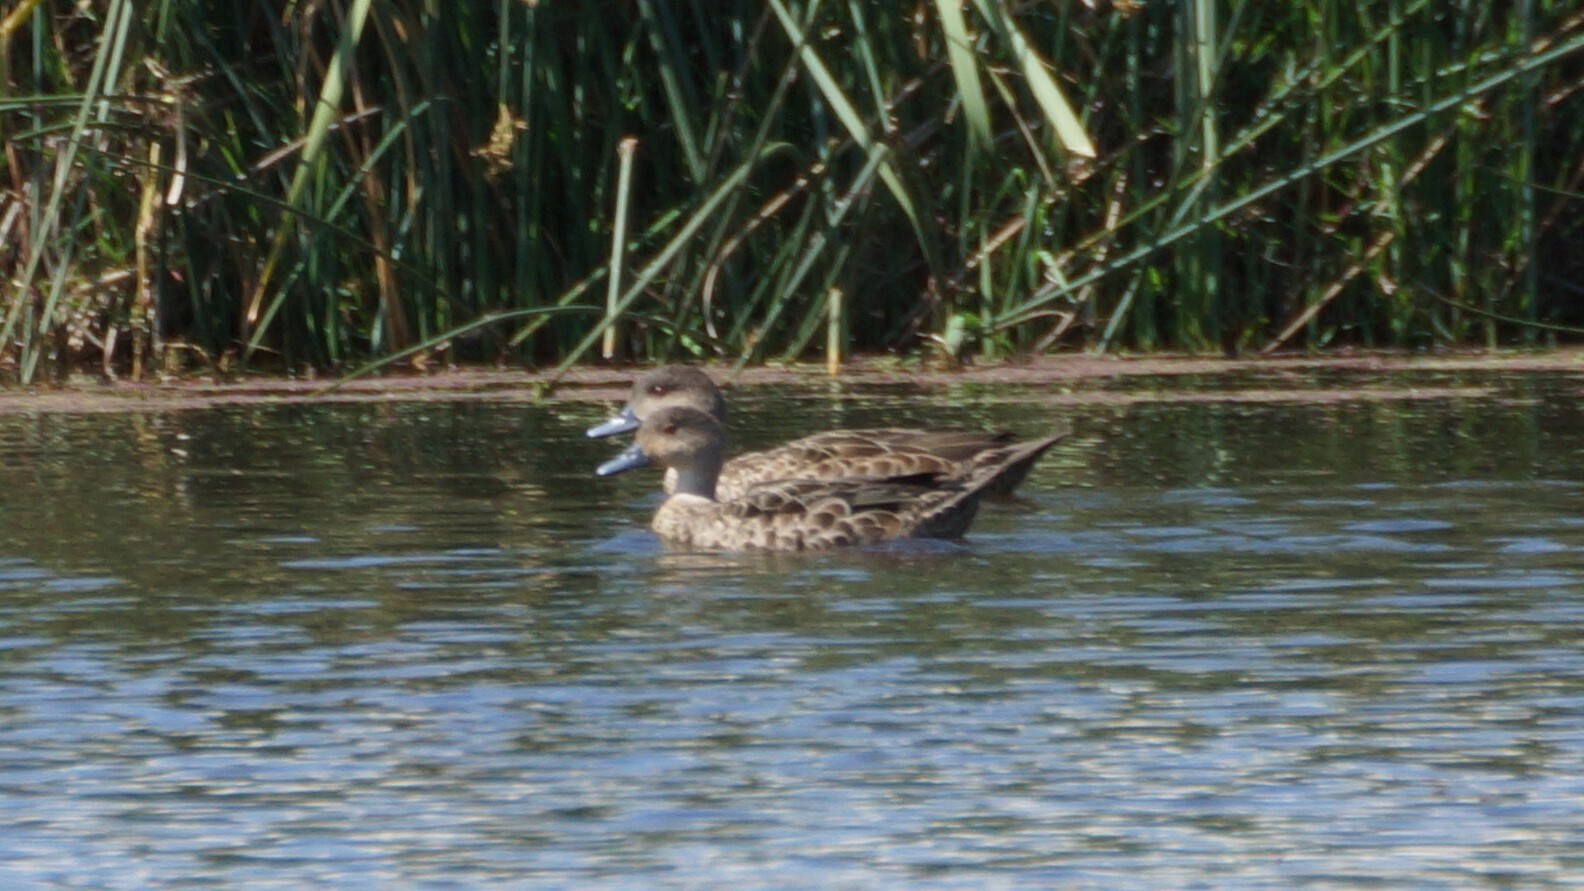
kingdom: Animalia
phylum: Chordata
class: Aves
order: Anseriformes
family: Anatidae
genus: Anas
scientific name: Anas gracilis
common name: Grey teal
